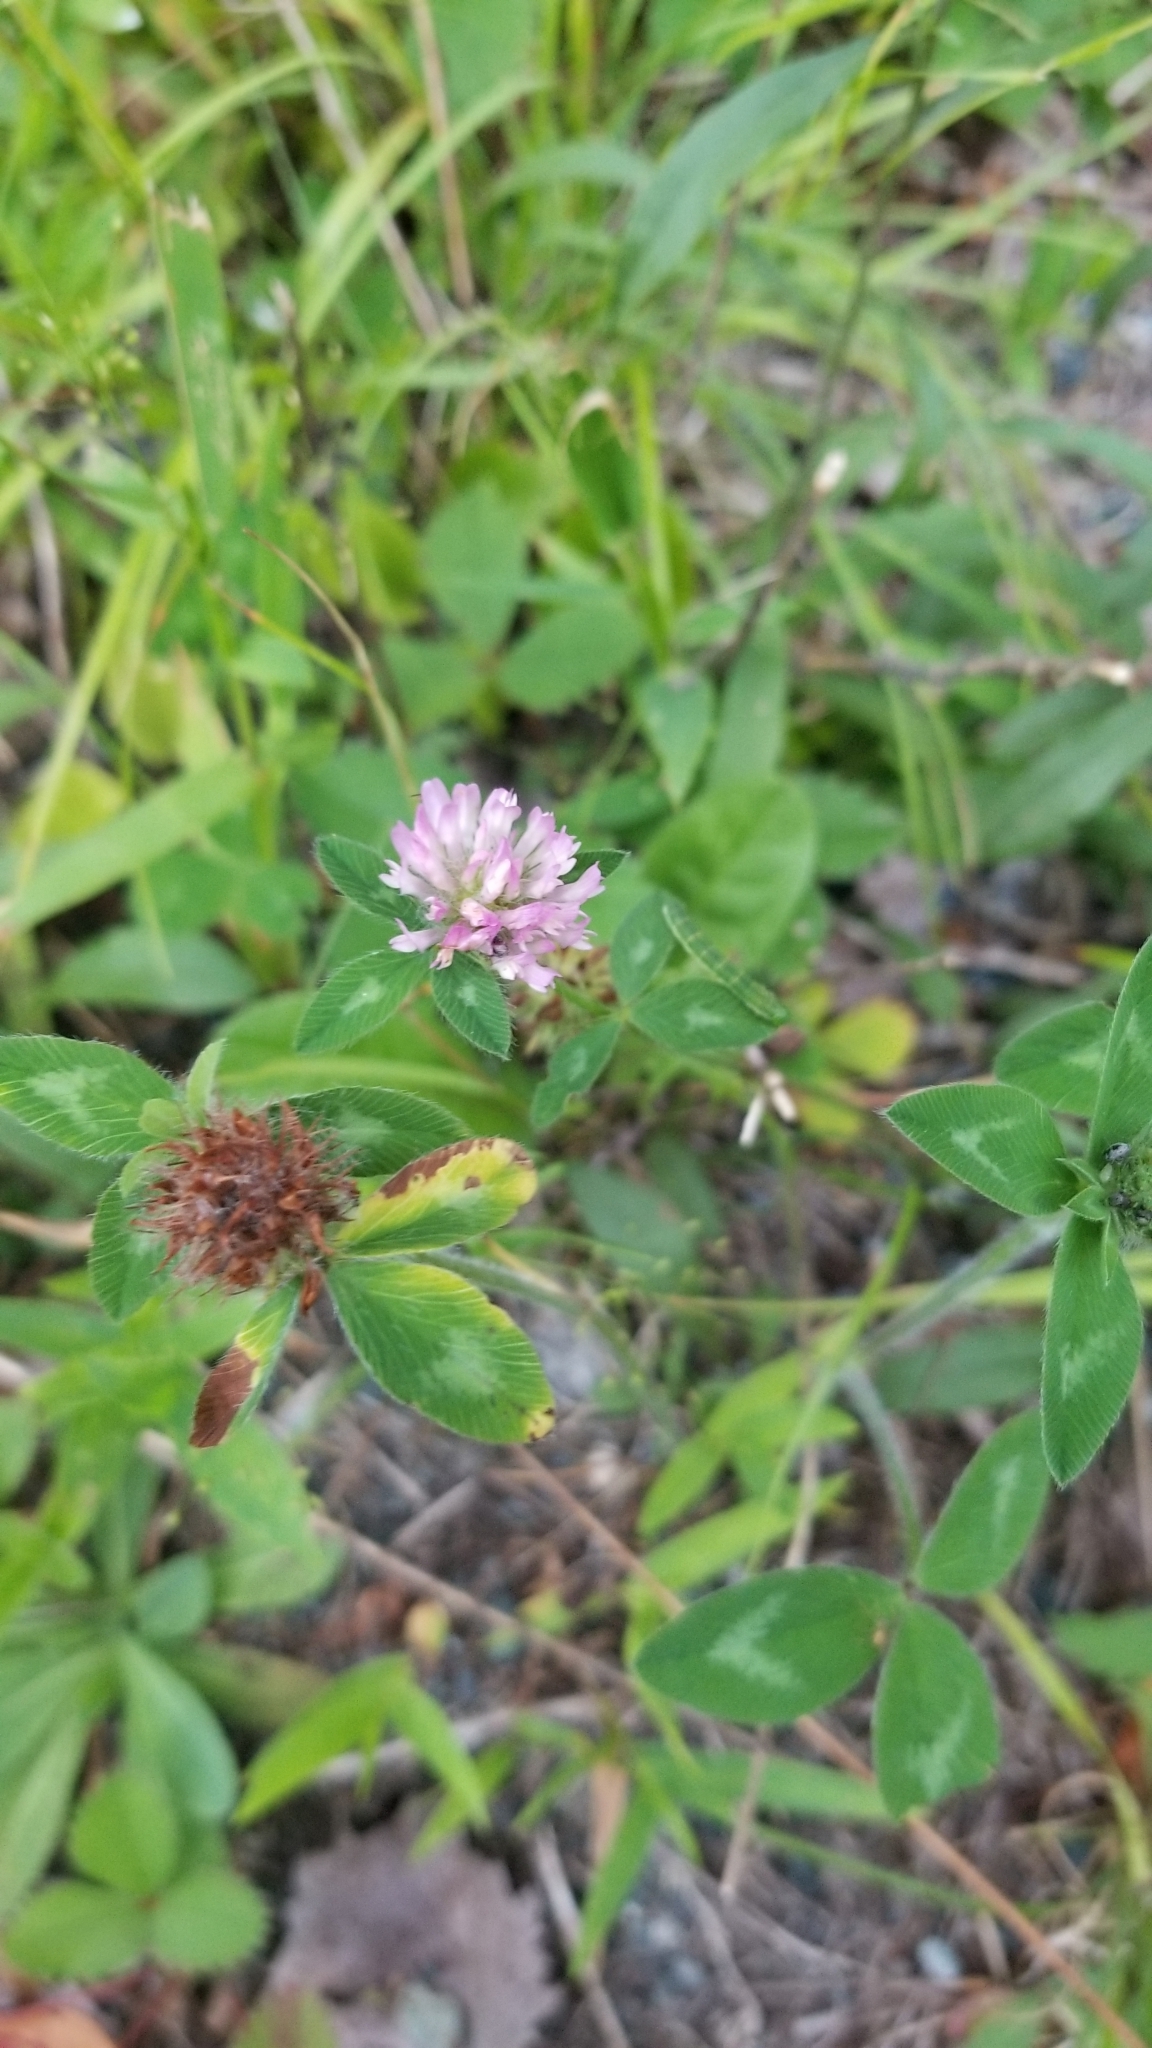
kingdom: Plantae
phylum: Tracheophyta
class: Magnoliopsida
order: Fabales
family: Fabaceae
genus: Trifolium
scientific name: Trifolium pratense
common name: Red clover
